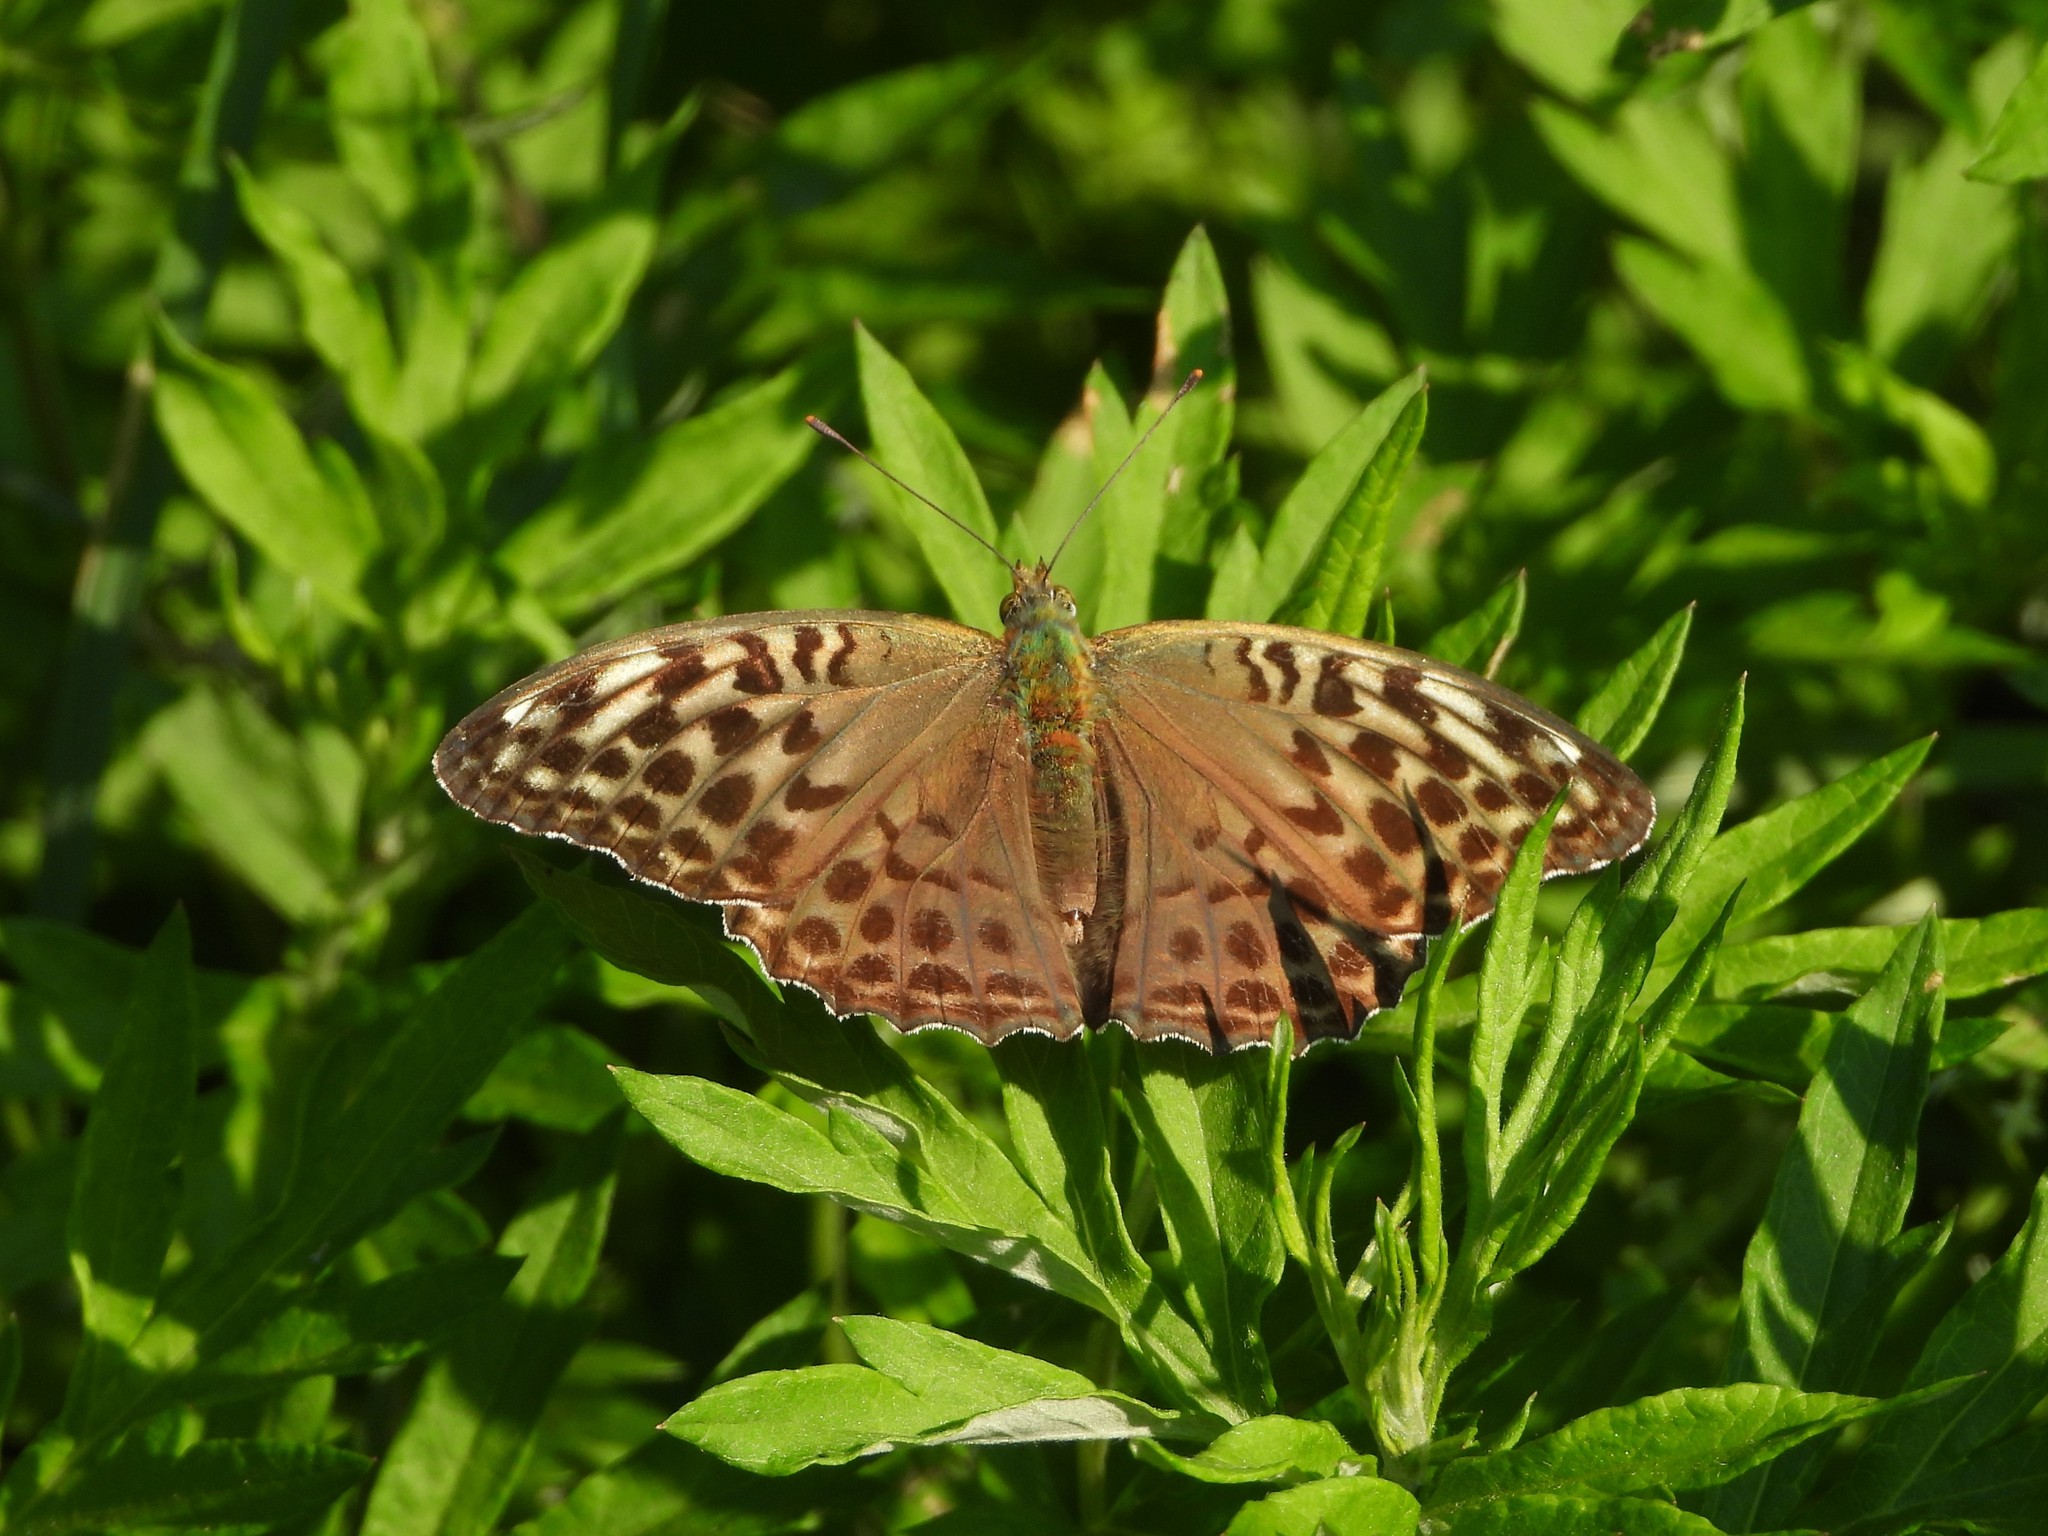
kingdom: Animalia
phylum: Arthropoda
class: Insecta
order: Lepidoptera
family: Nymphalidae
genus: Argynnis
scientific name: Argynnis paphia
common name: Silver-washed fritillary
